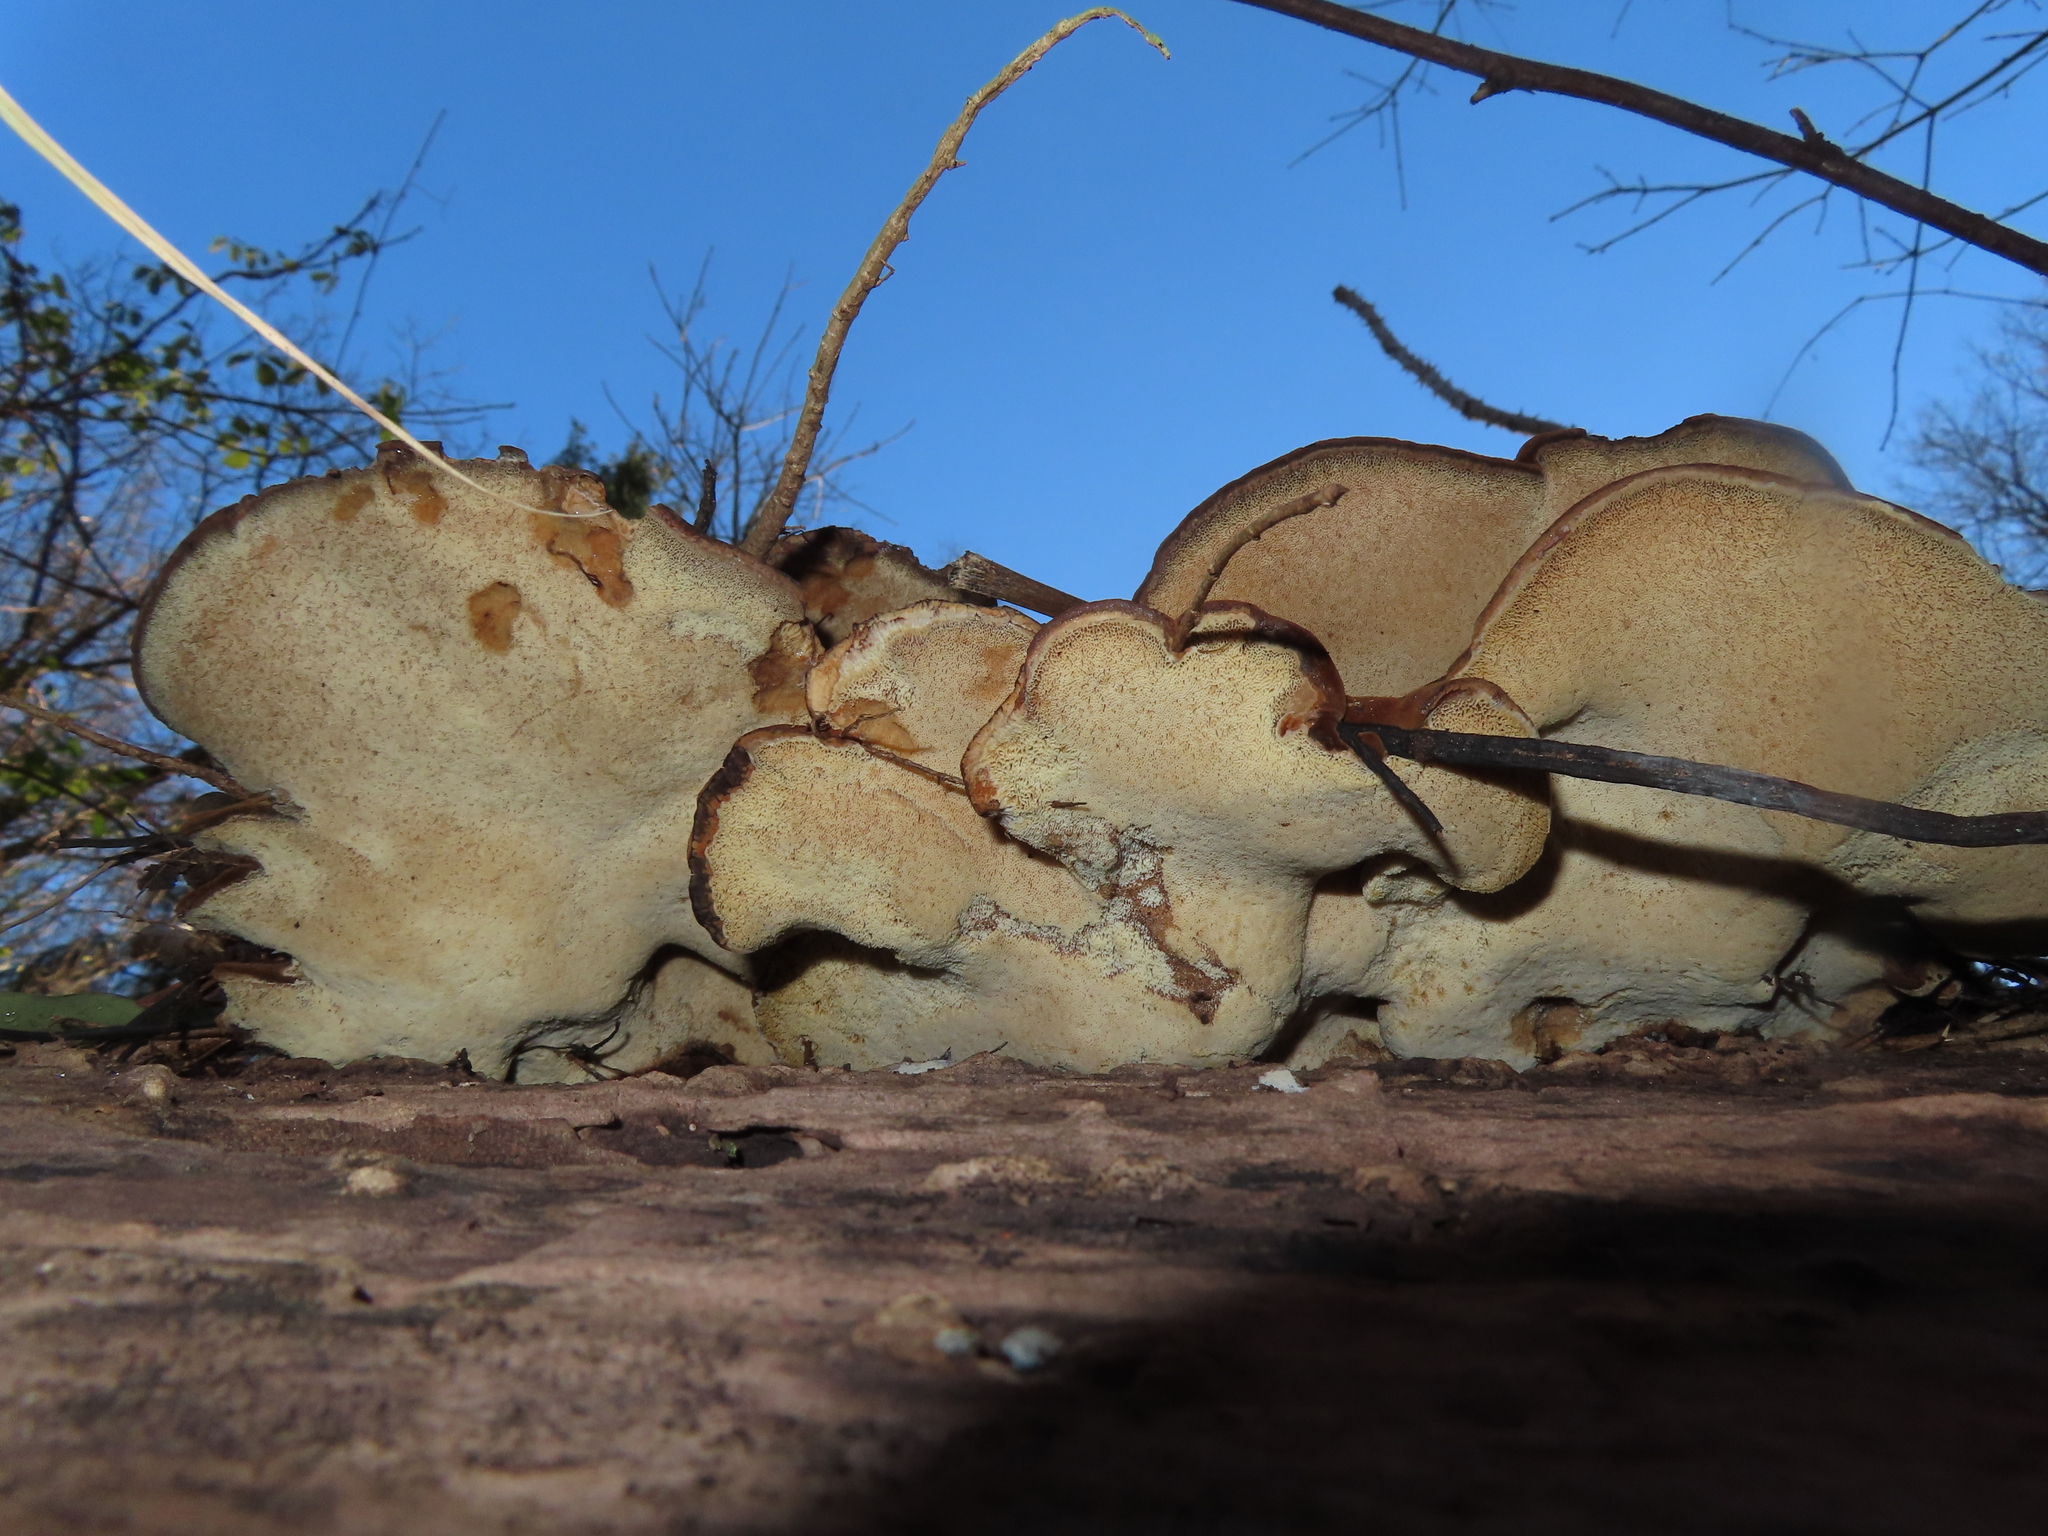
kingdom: Fungi
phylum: Basidiomycota
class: Agaricomycetes
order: Polyporales
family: Ischnodermataceae
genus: Ischnoderma
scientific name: Ischnoderma resinosum
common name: Resinous polypore
